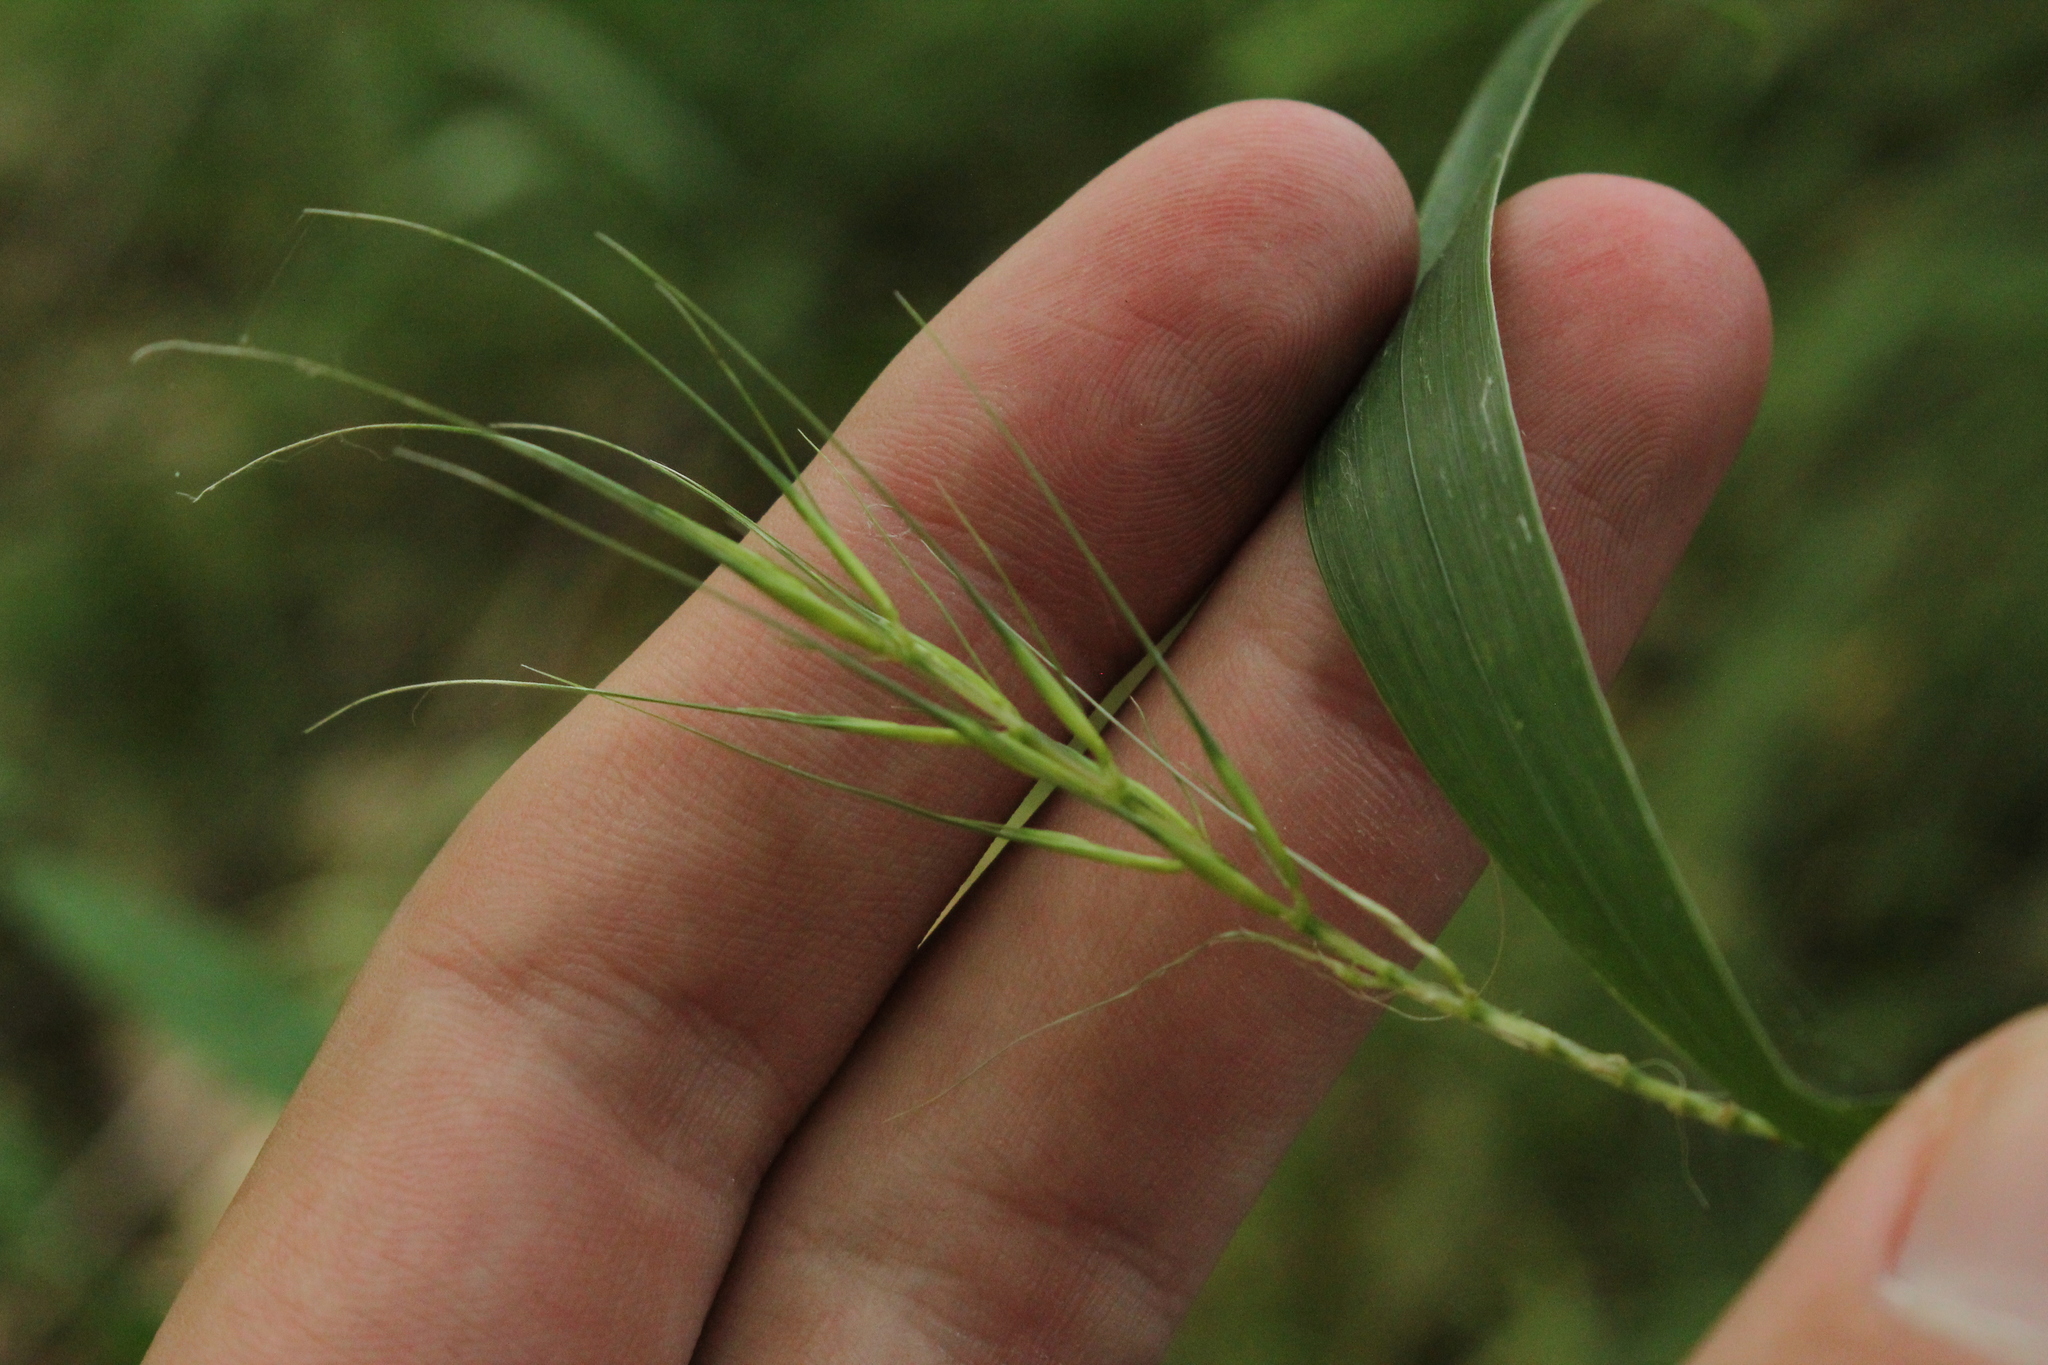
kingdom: Plantae
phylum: Tracheophyta
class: Liliopsida
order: Poales
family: Poaceae
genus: Elymus
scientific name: Elymus hystrix
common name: Bottlebrush grass
